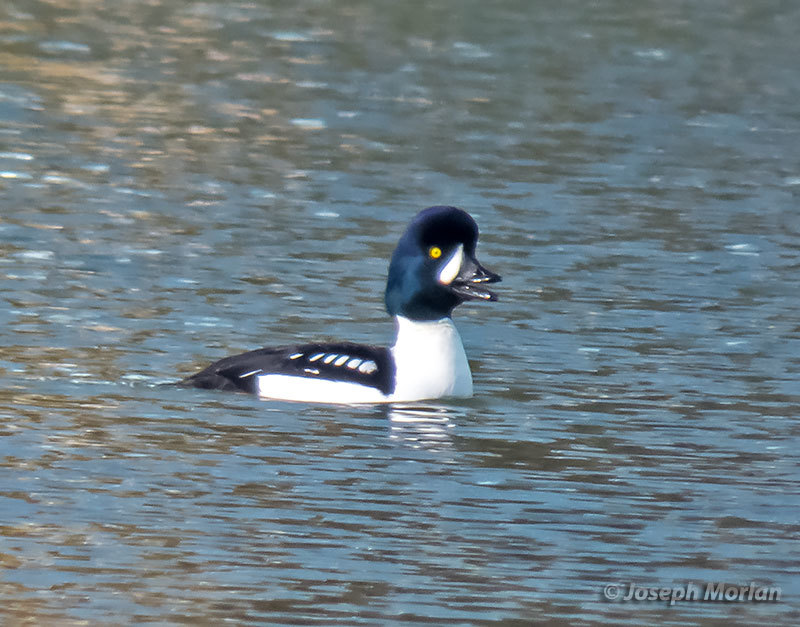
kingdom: Animalia
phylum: Chordata
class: Aves
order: Anseriformes
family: Anatidae
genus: Bucephala
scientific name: Bucephala islandica
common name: Barrow's goldeneye
